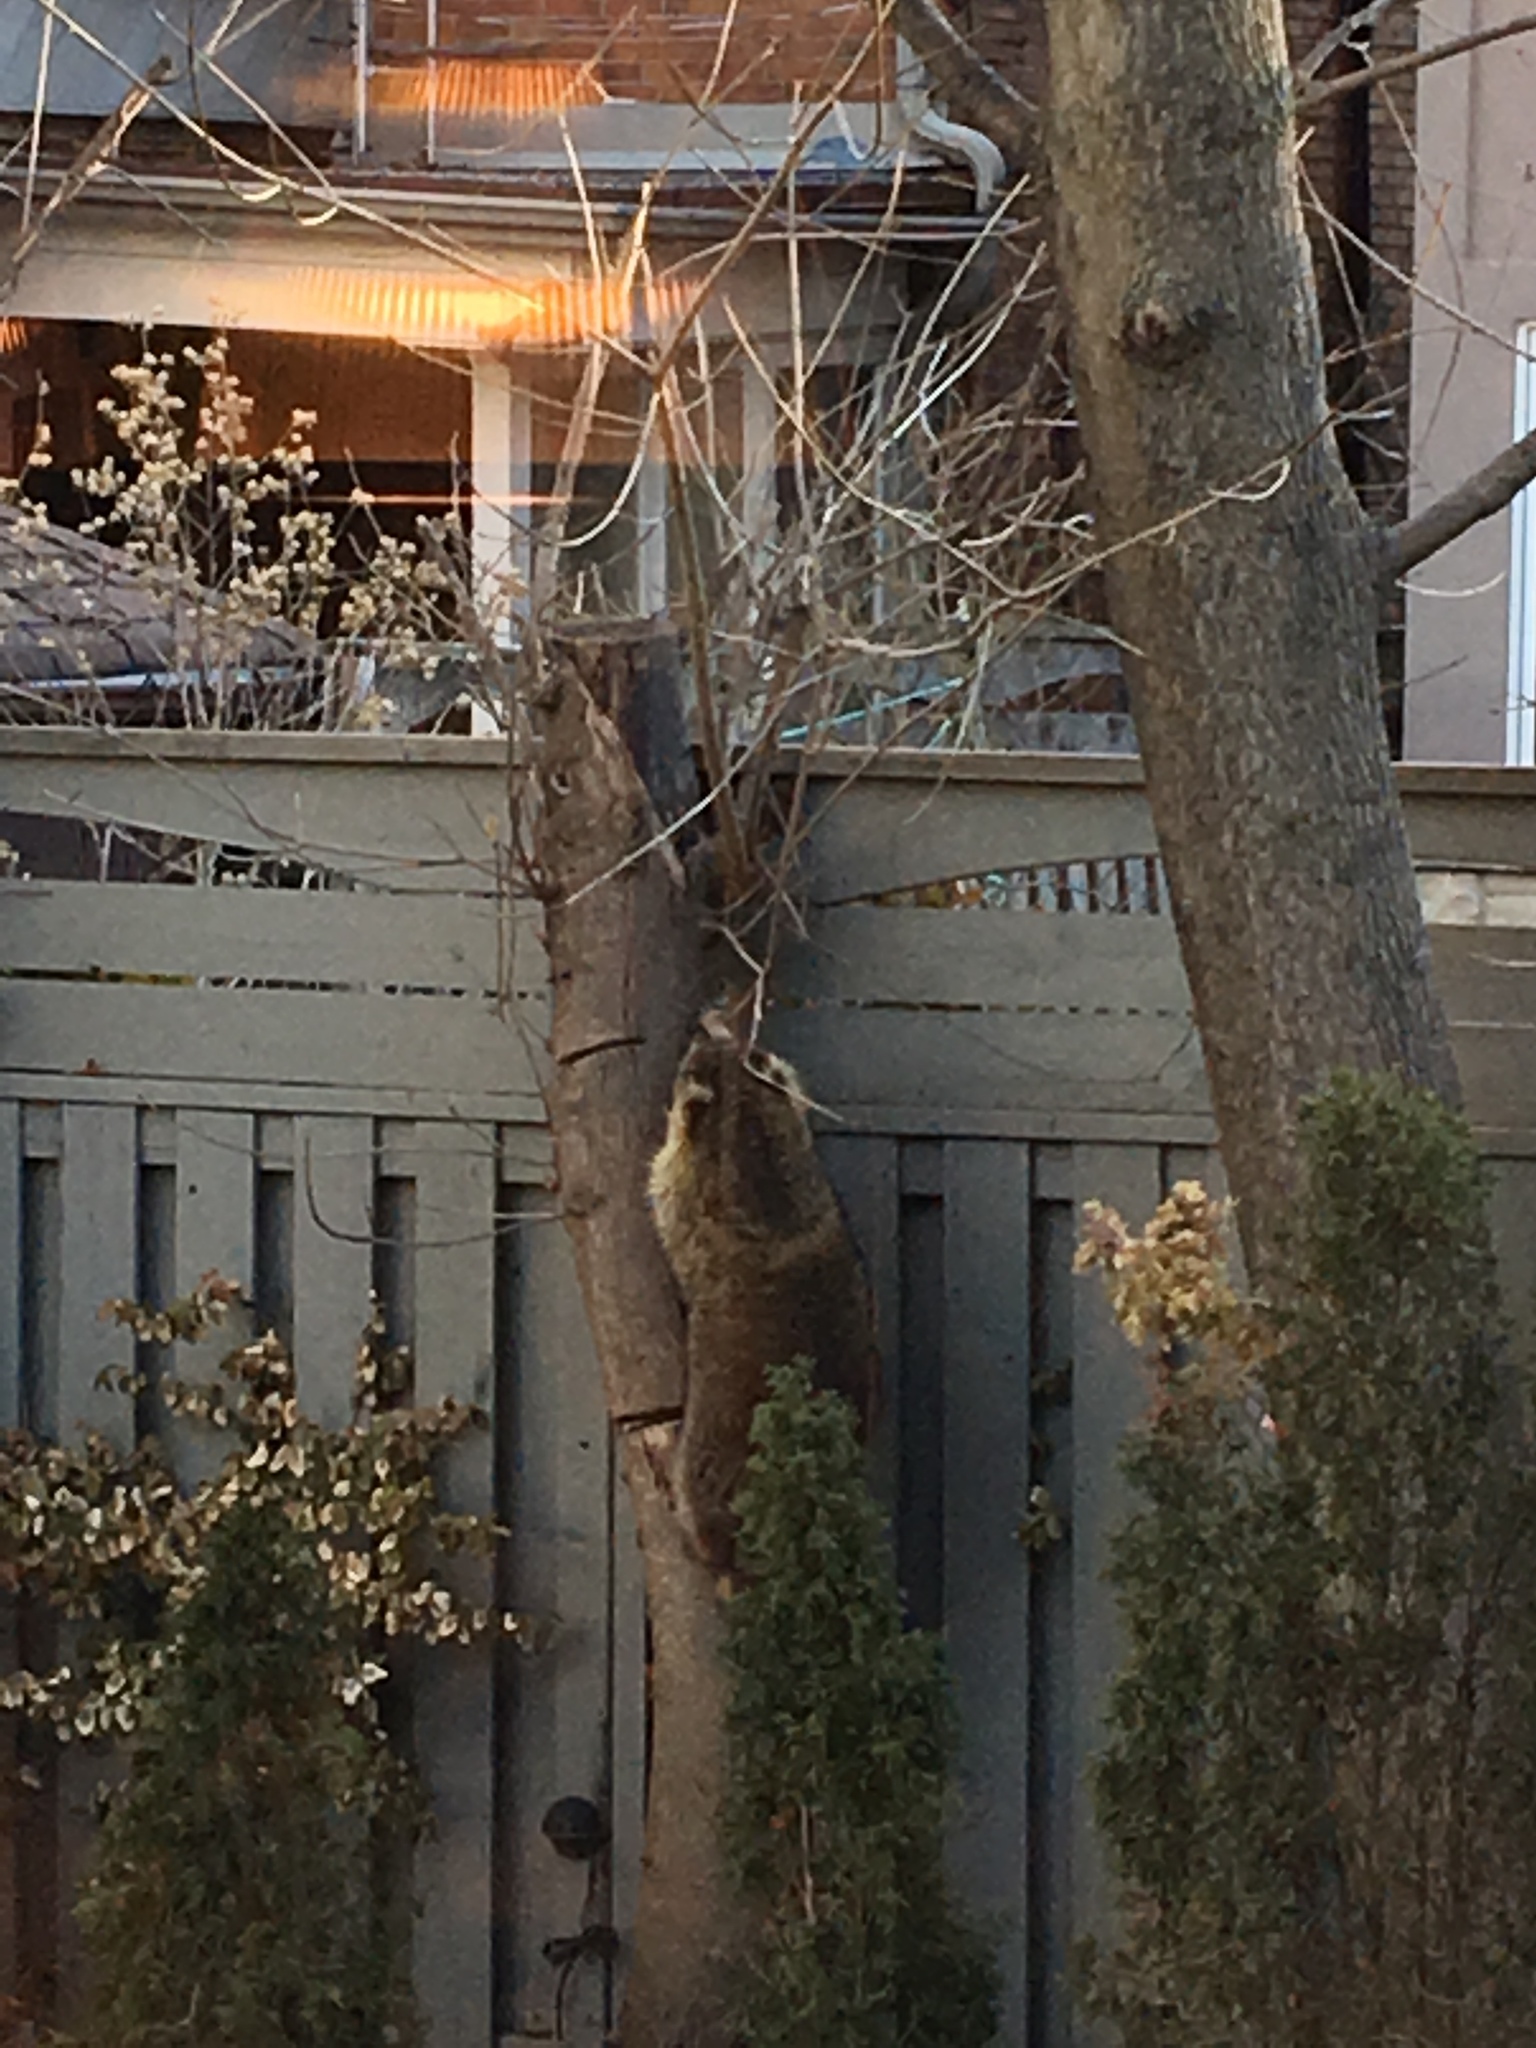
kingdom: Animalia
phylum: Chordata
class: Mammalia
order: Carnivora
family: Procyonidae
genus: Procyon
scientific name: Procyon lotor
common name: Raccoon
